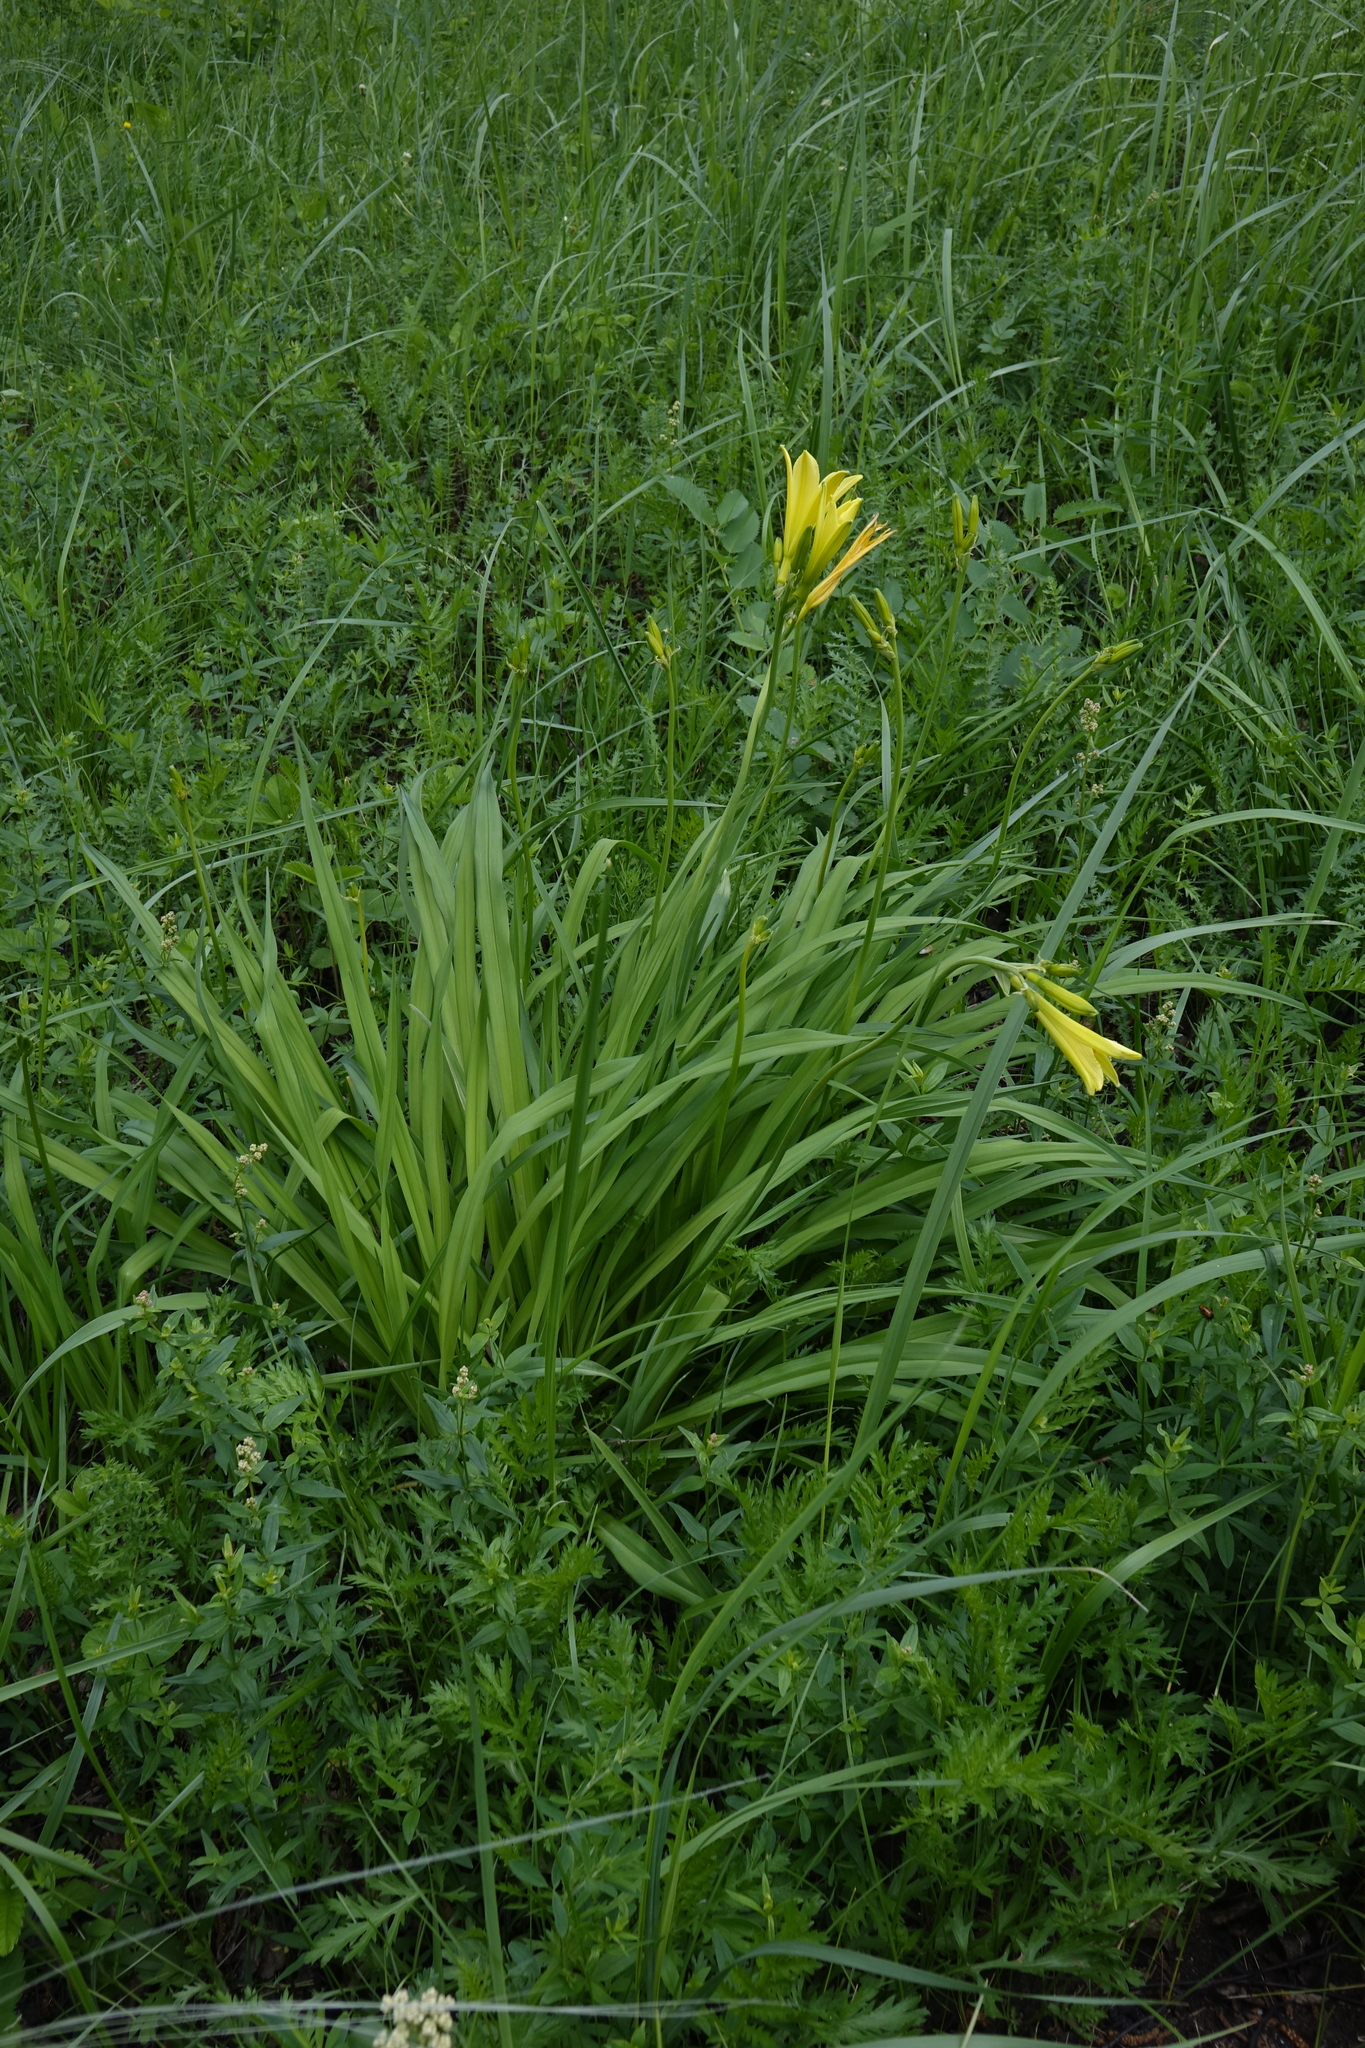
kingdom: Plantae
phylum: Tracheophyta
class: Liliopsida
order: Asparagales
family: Asphodelaceae
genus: Hemerocallis
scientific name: Hemerocallis minor
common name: Small daylily
